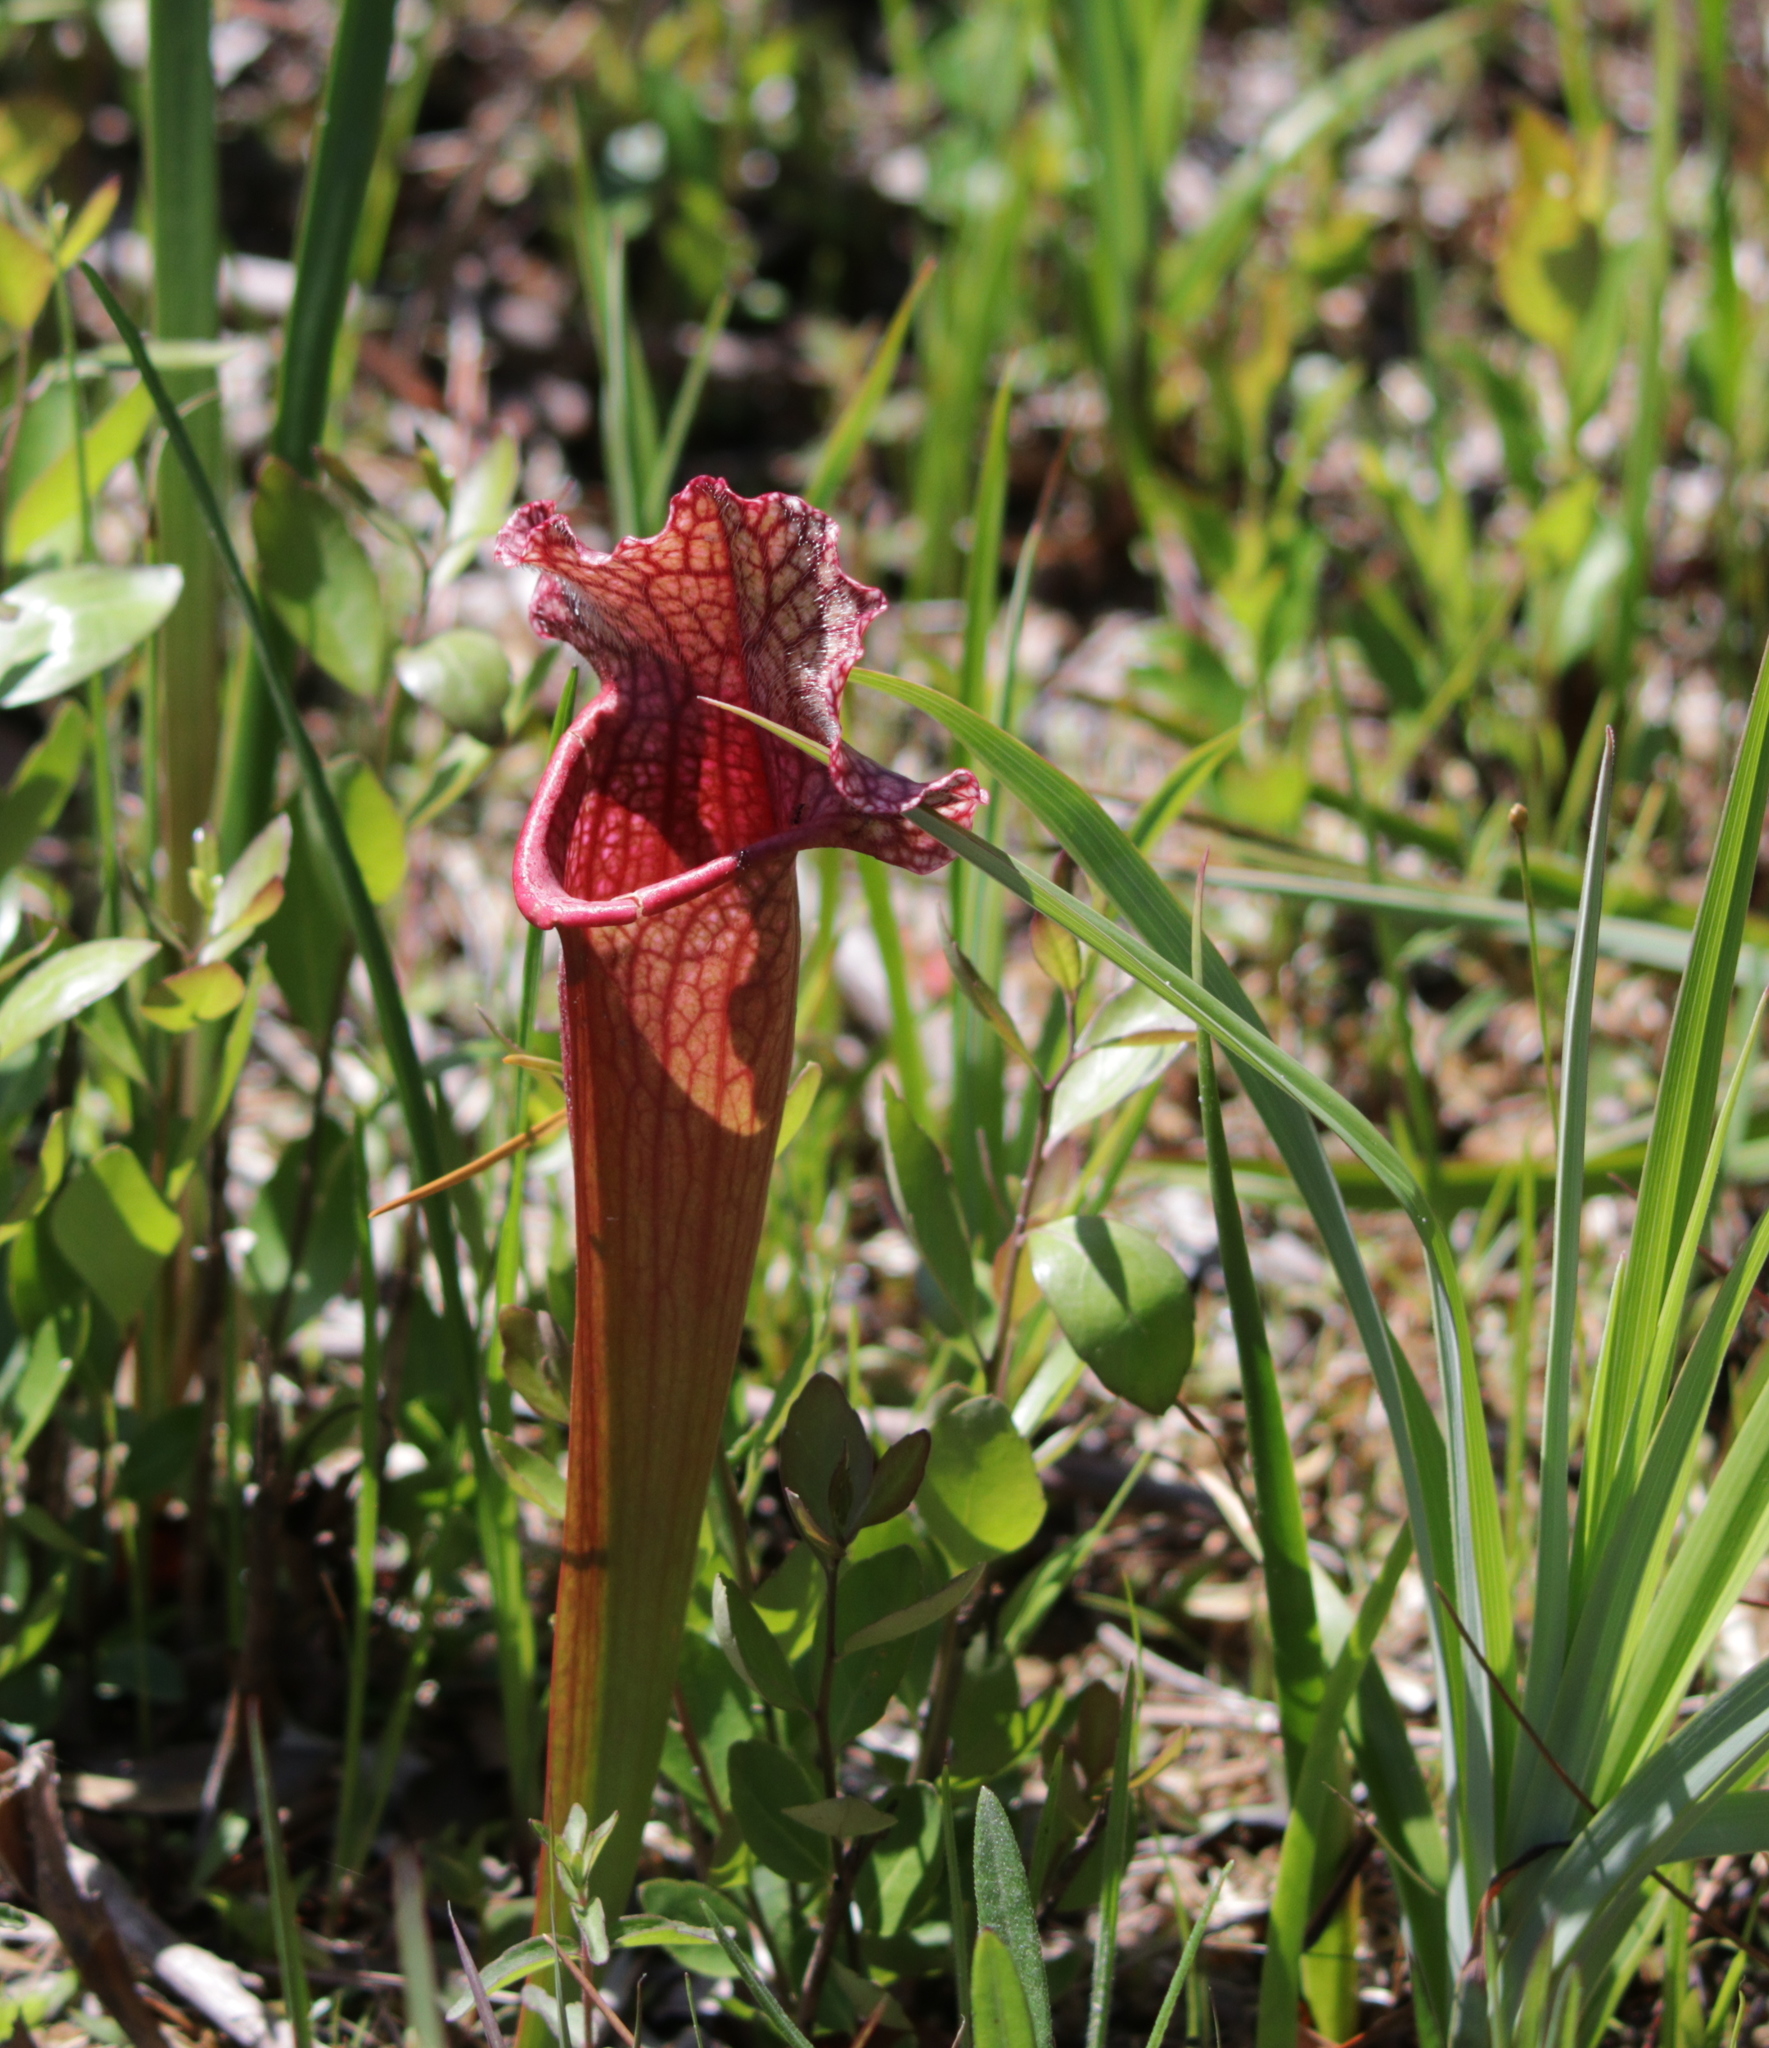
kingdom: Plantae
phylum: Tracheophyta
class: Magnoliopsida
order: Ericales
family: Sarraceniaceae
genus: Sarracenia
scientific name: Sarracenia mitchelliana
